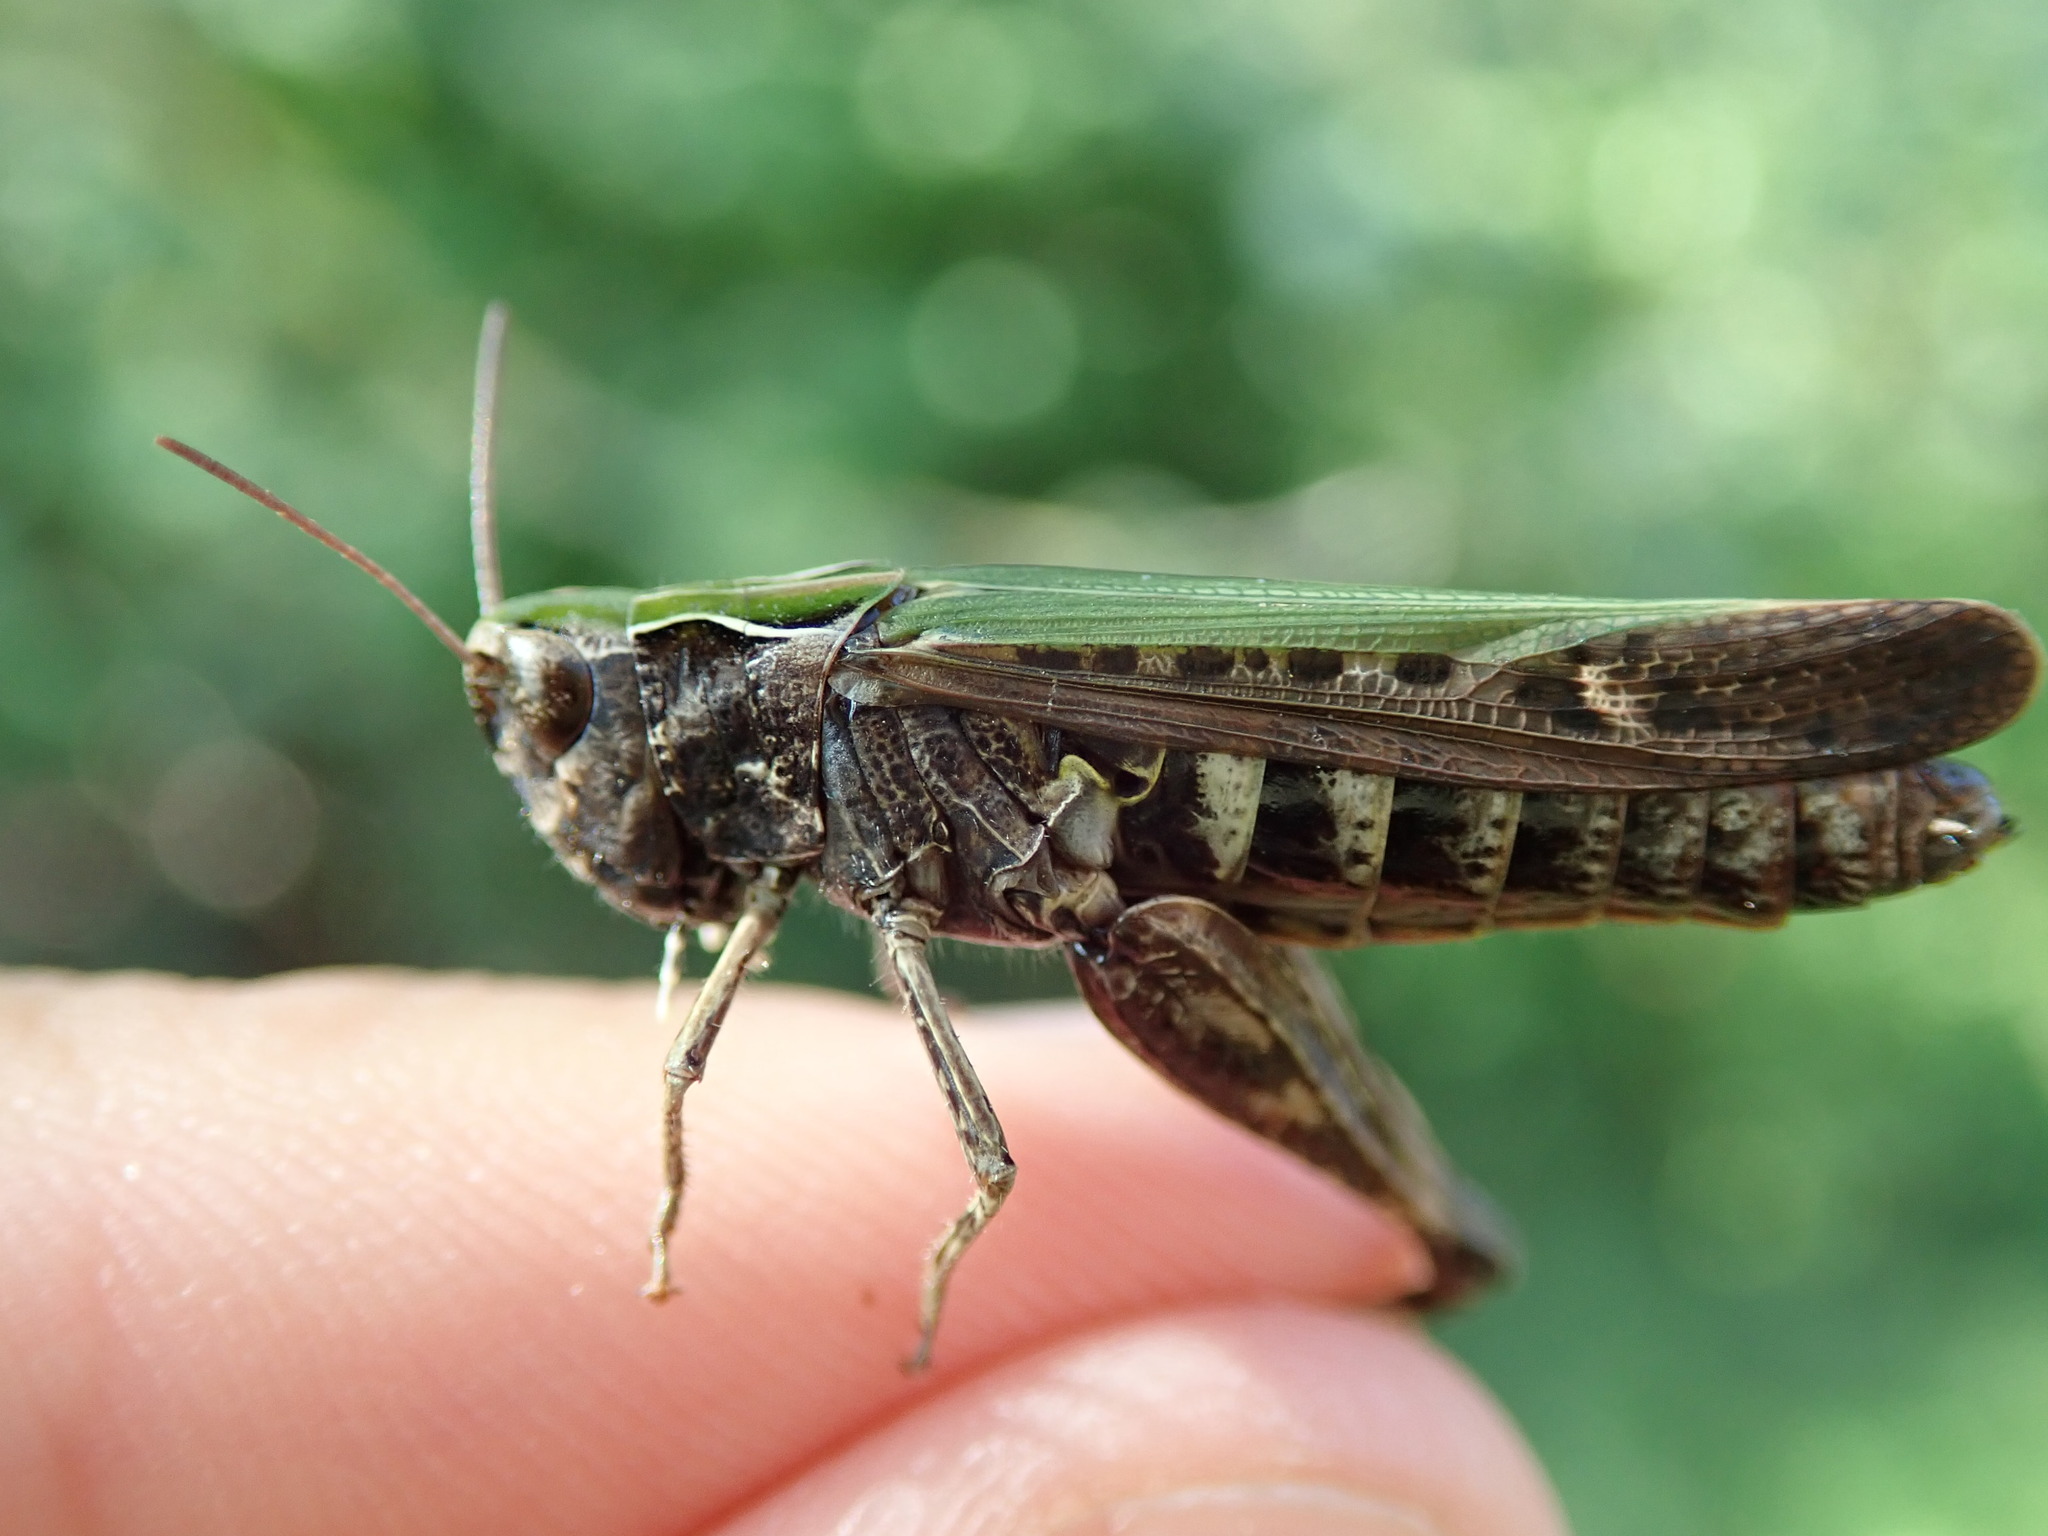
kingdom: Animalia
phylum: Arthropoda
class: Insecta
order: Orthoptera
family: Acrididae
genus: Omocestus
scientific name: Omocestus rufipes
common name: Woodland grasshopper
